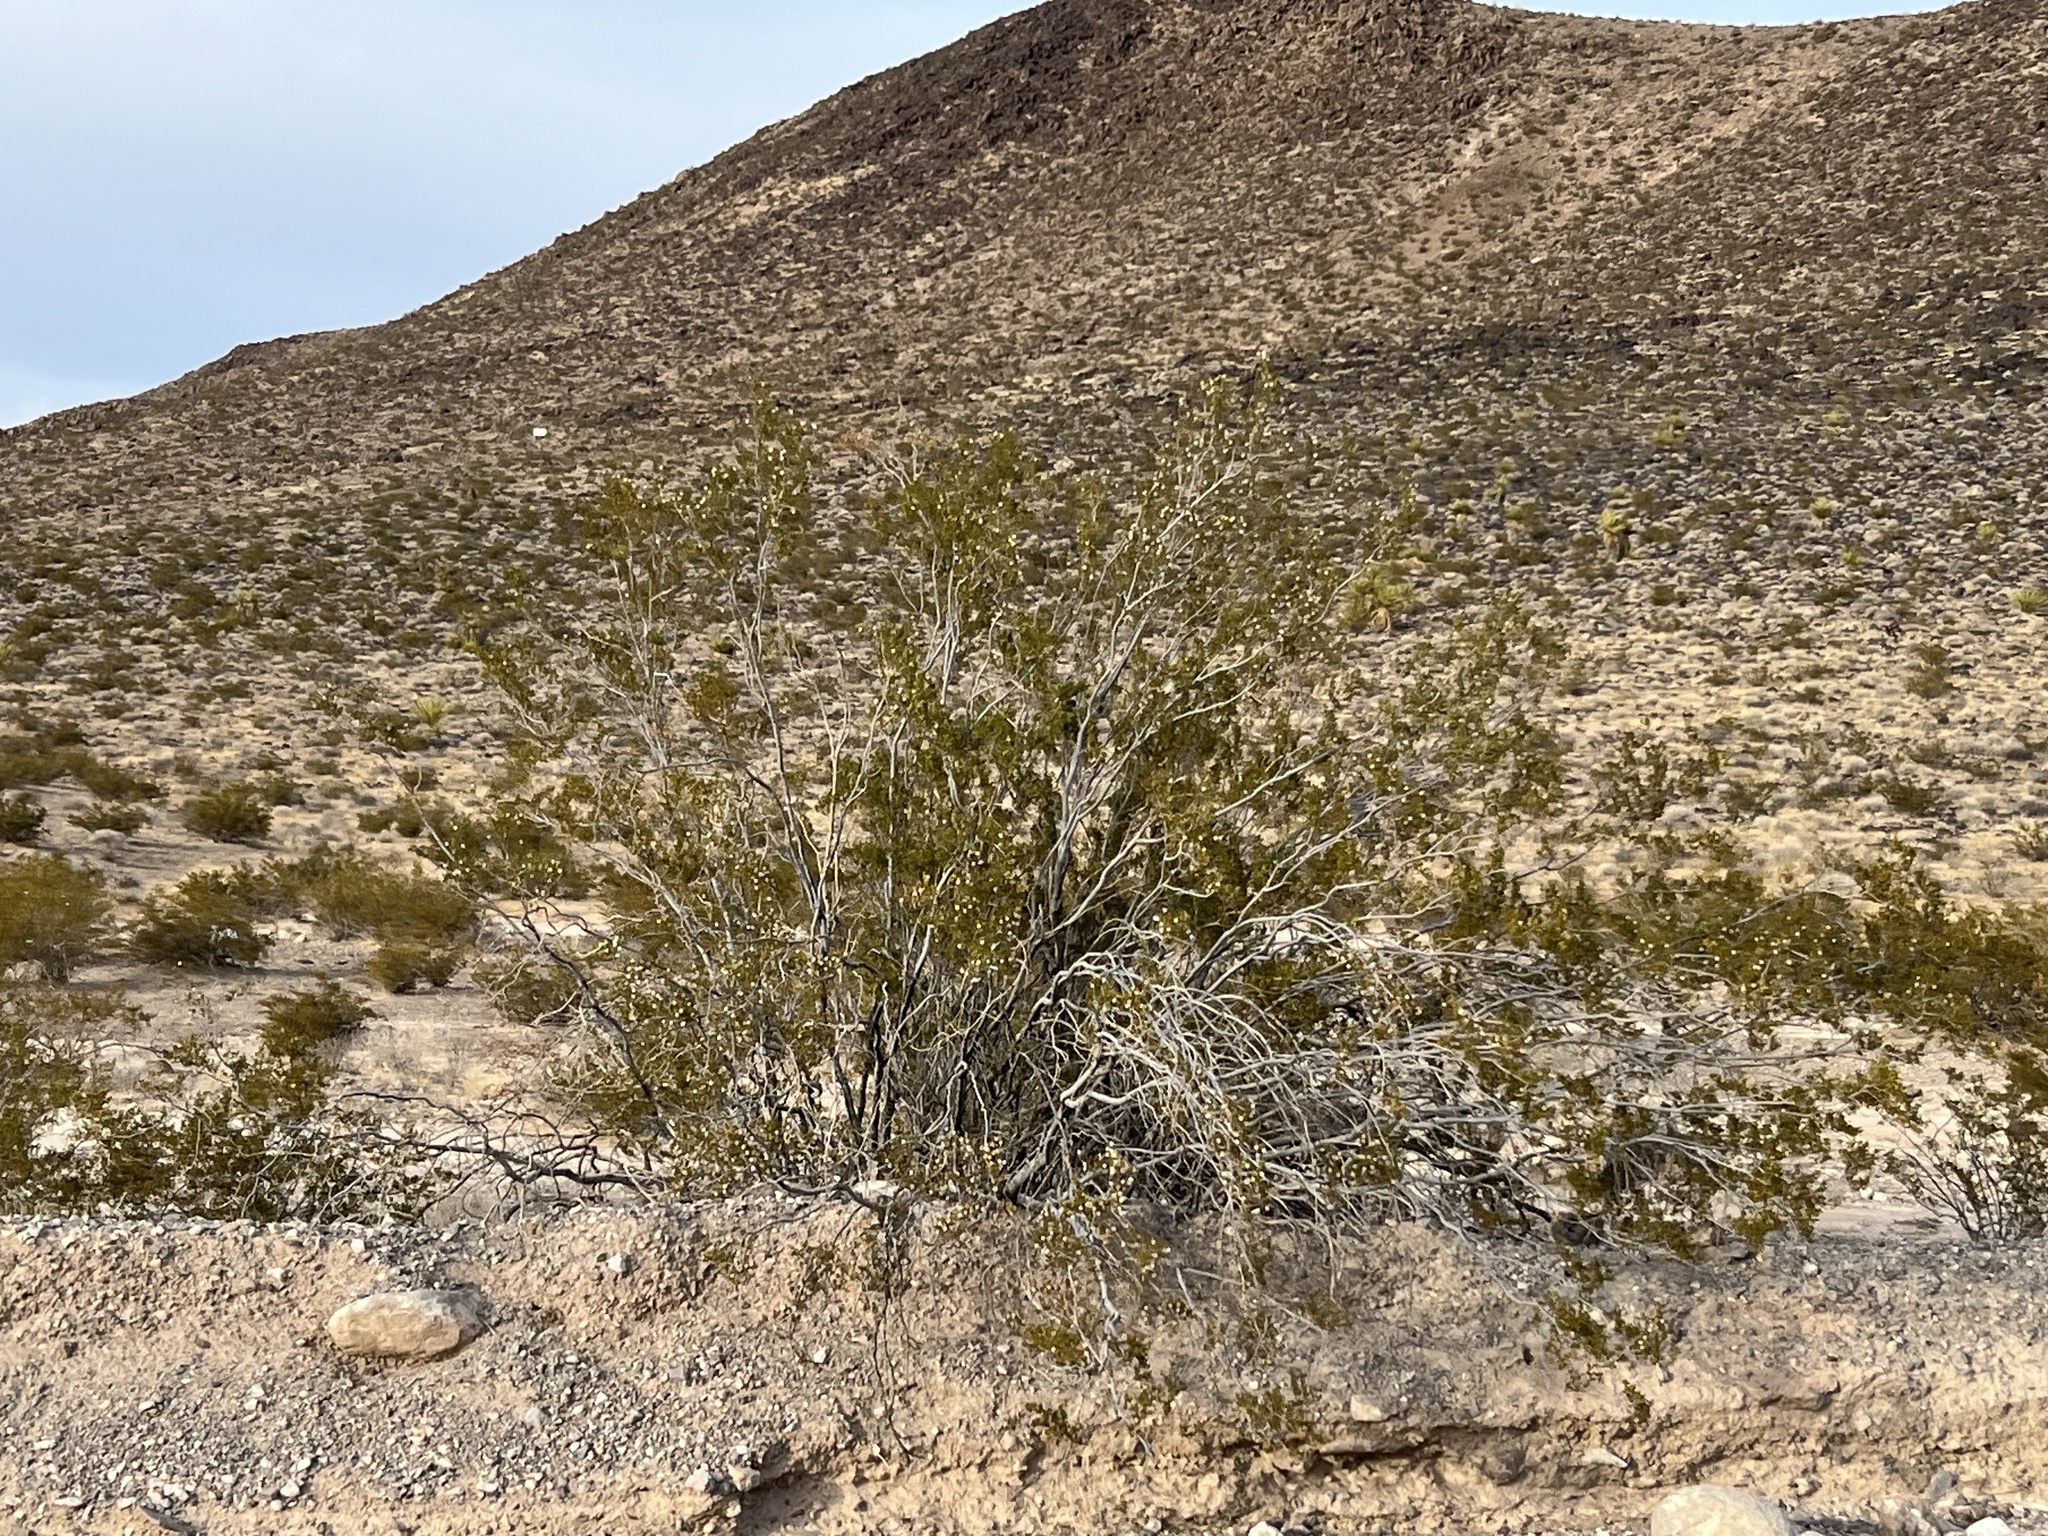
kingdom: Plantae
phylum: Tracheophyta
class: Magnoliopsida
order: Zygophyllales
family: Zygophyllaceae
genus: Larrea
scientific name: Larrea tridentata
